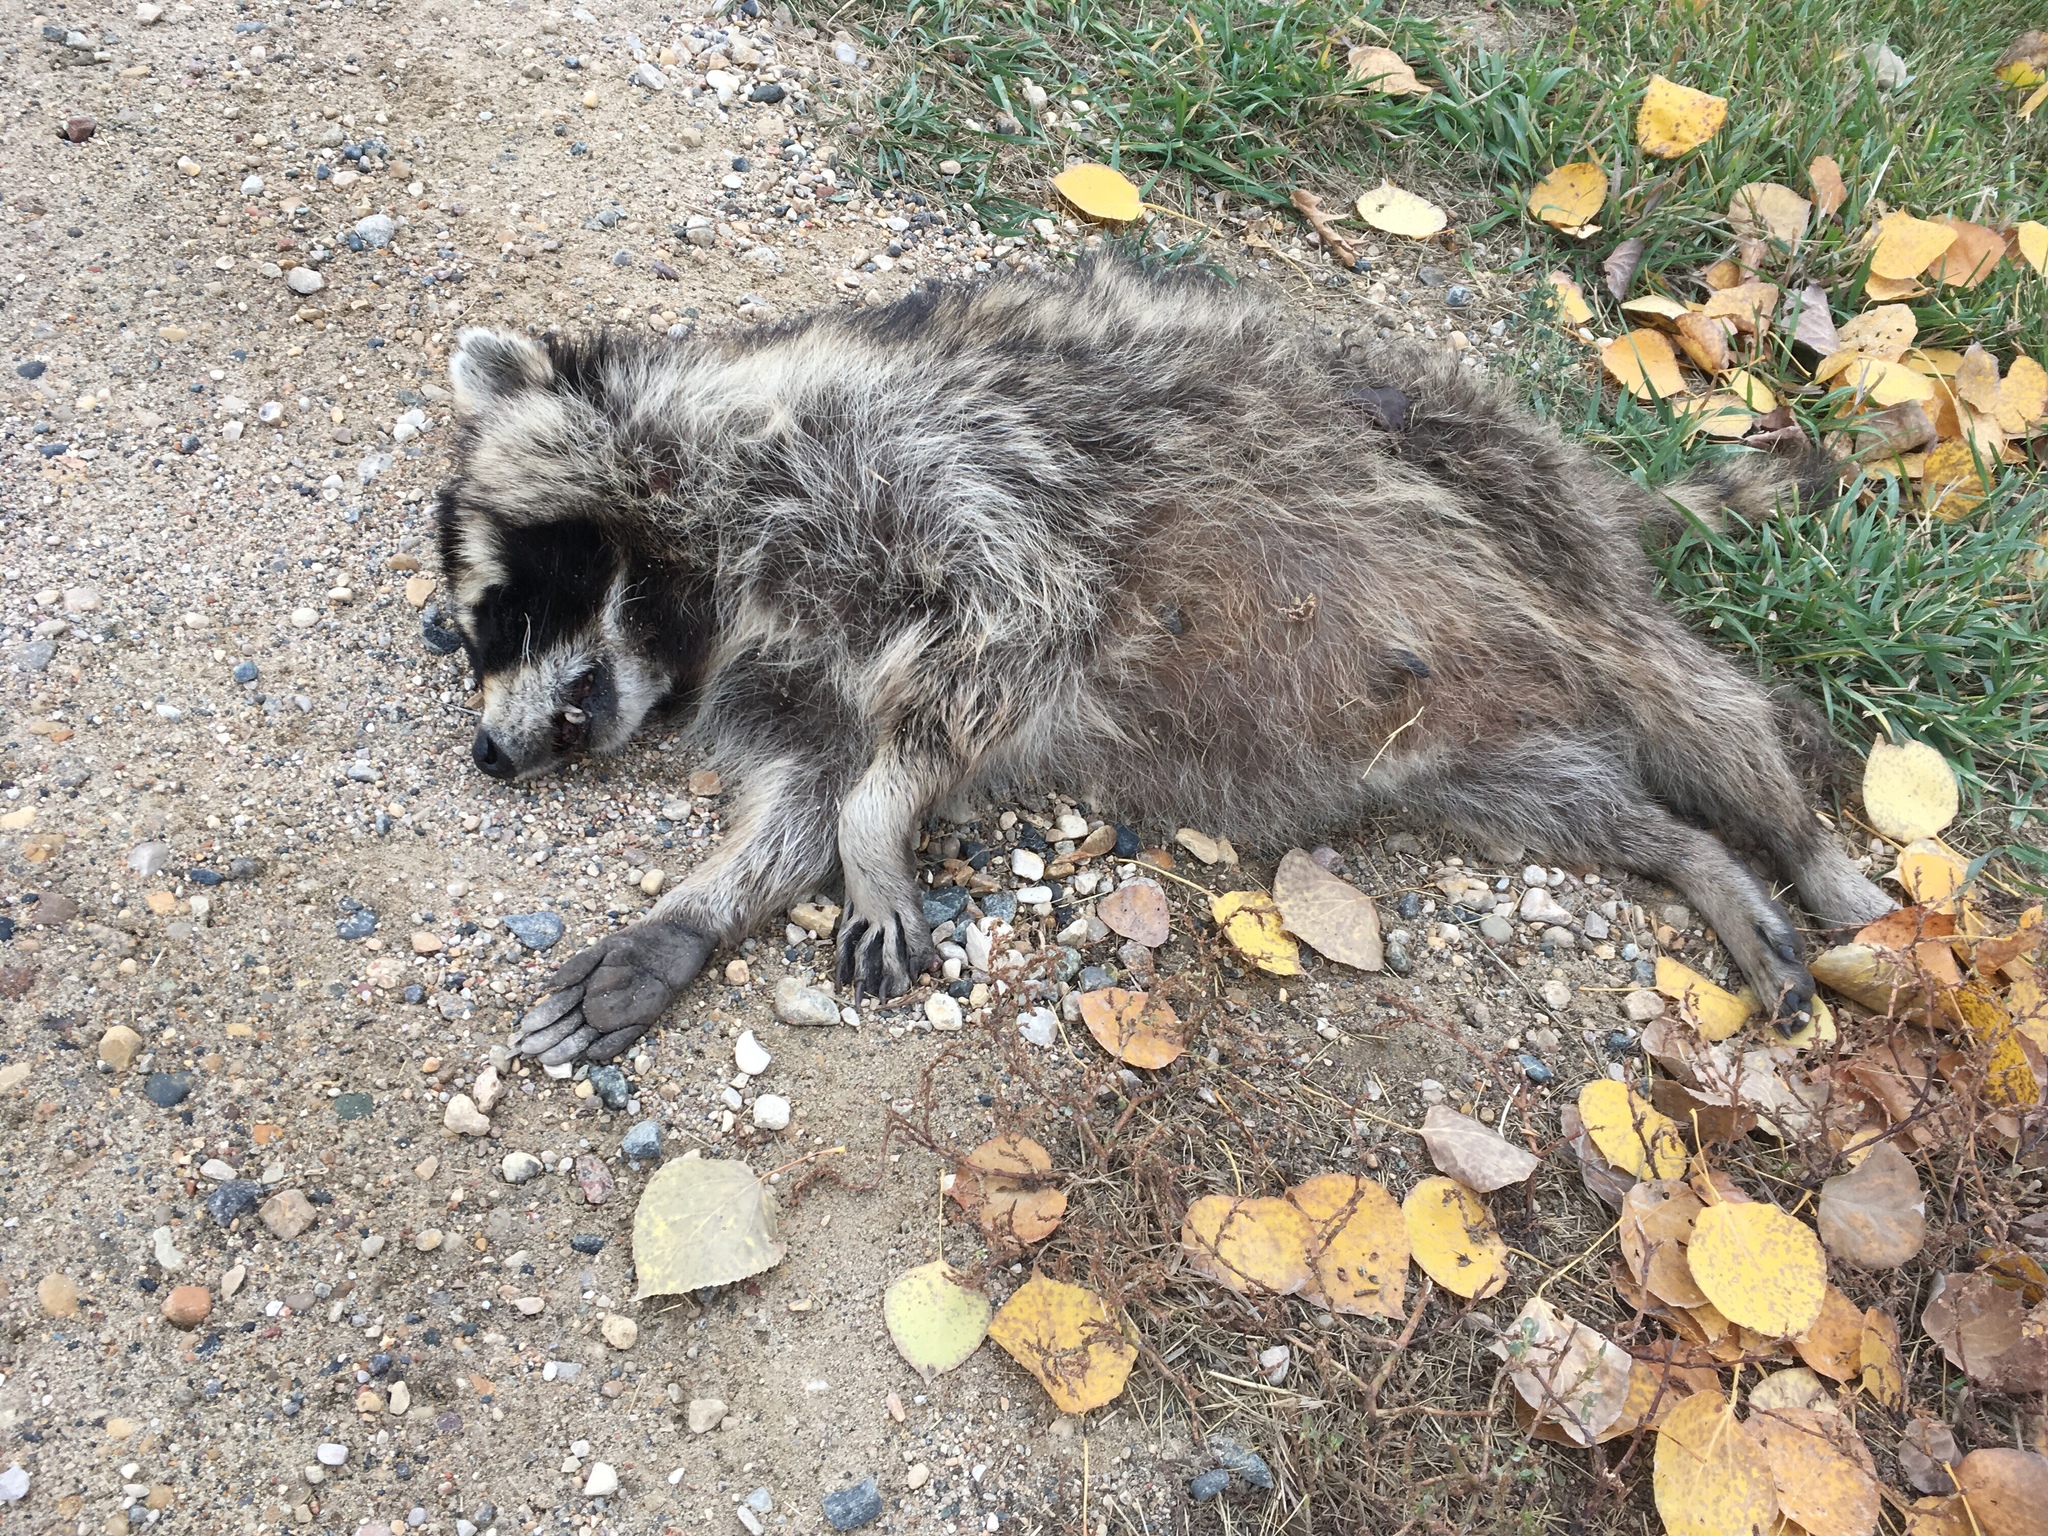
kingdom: Animalia
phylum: Chordata
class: Mammalia
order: Carnivora
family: Procyonidae
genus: Procyon
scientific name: Procyon lotor
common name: Raccoon
